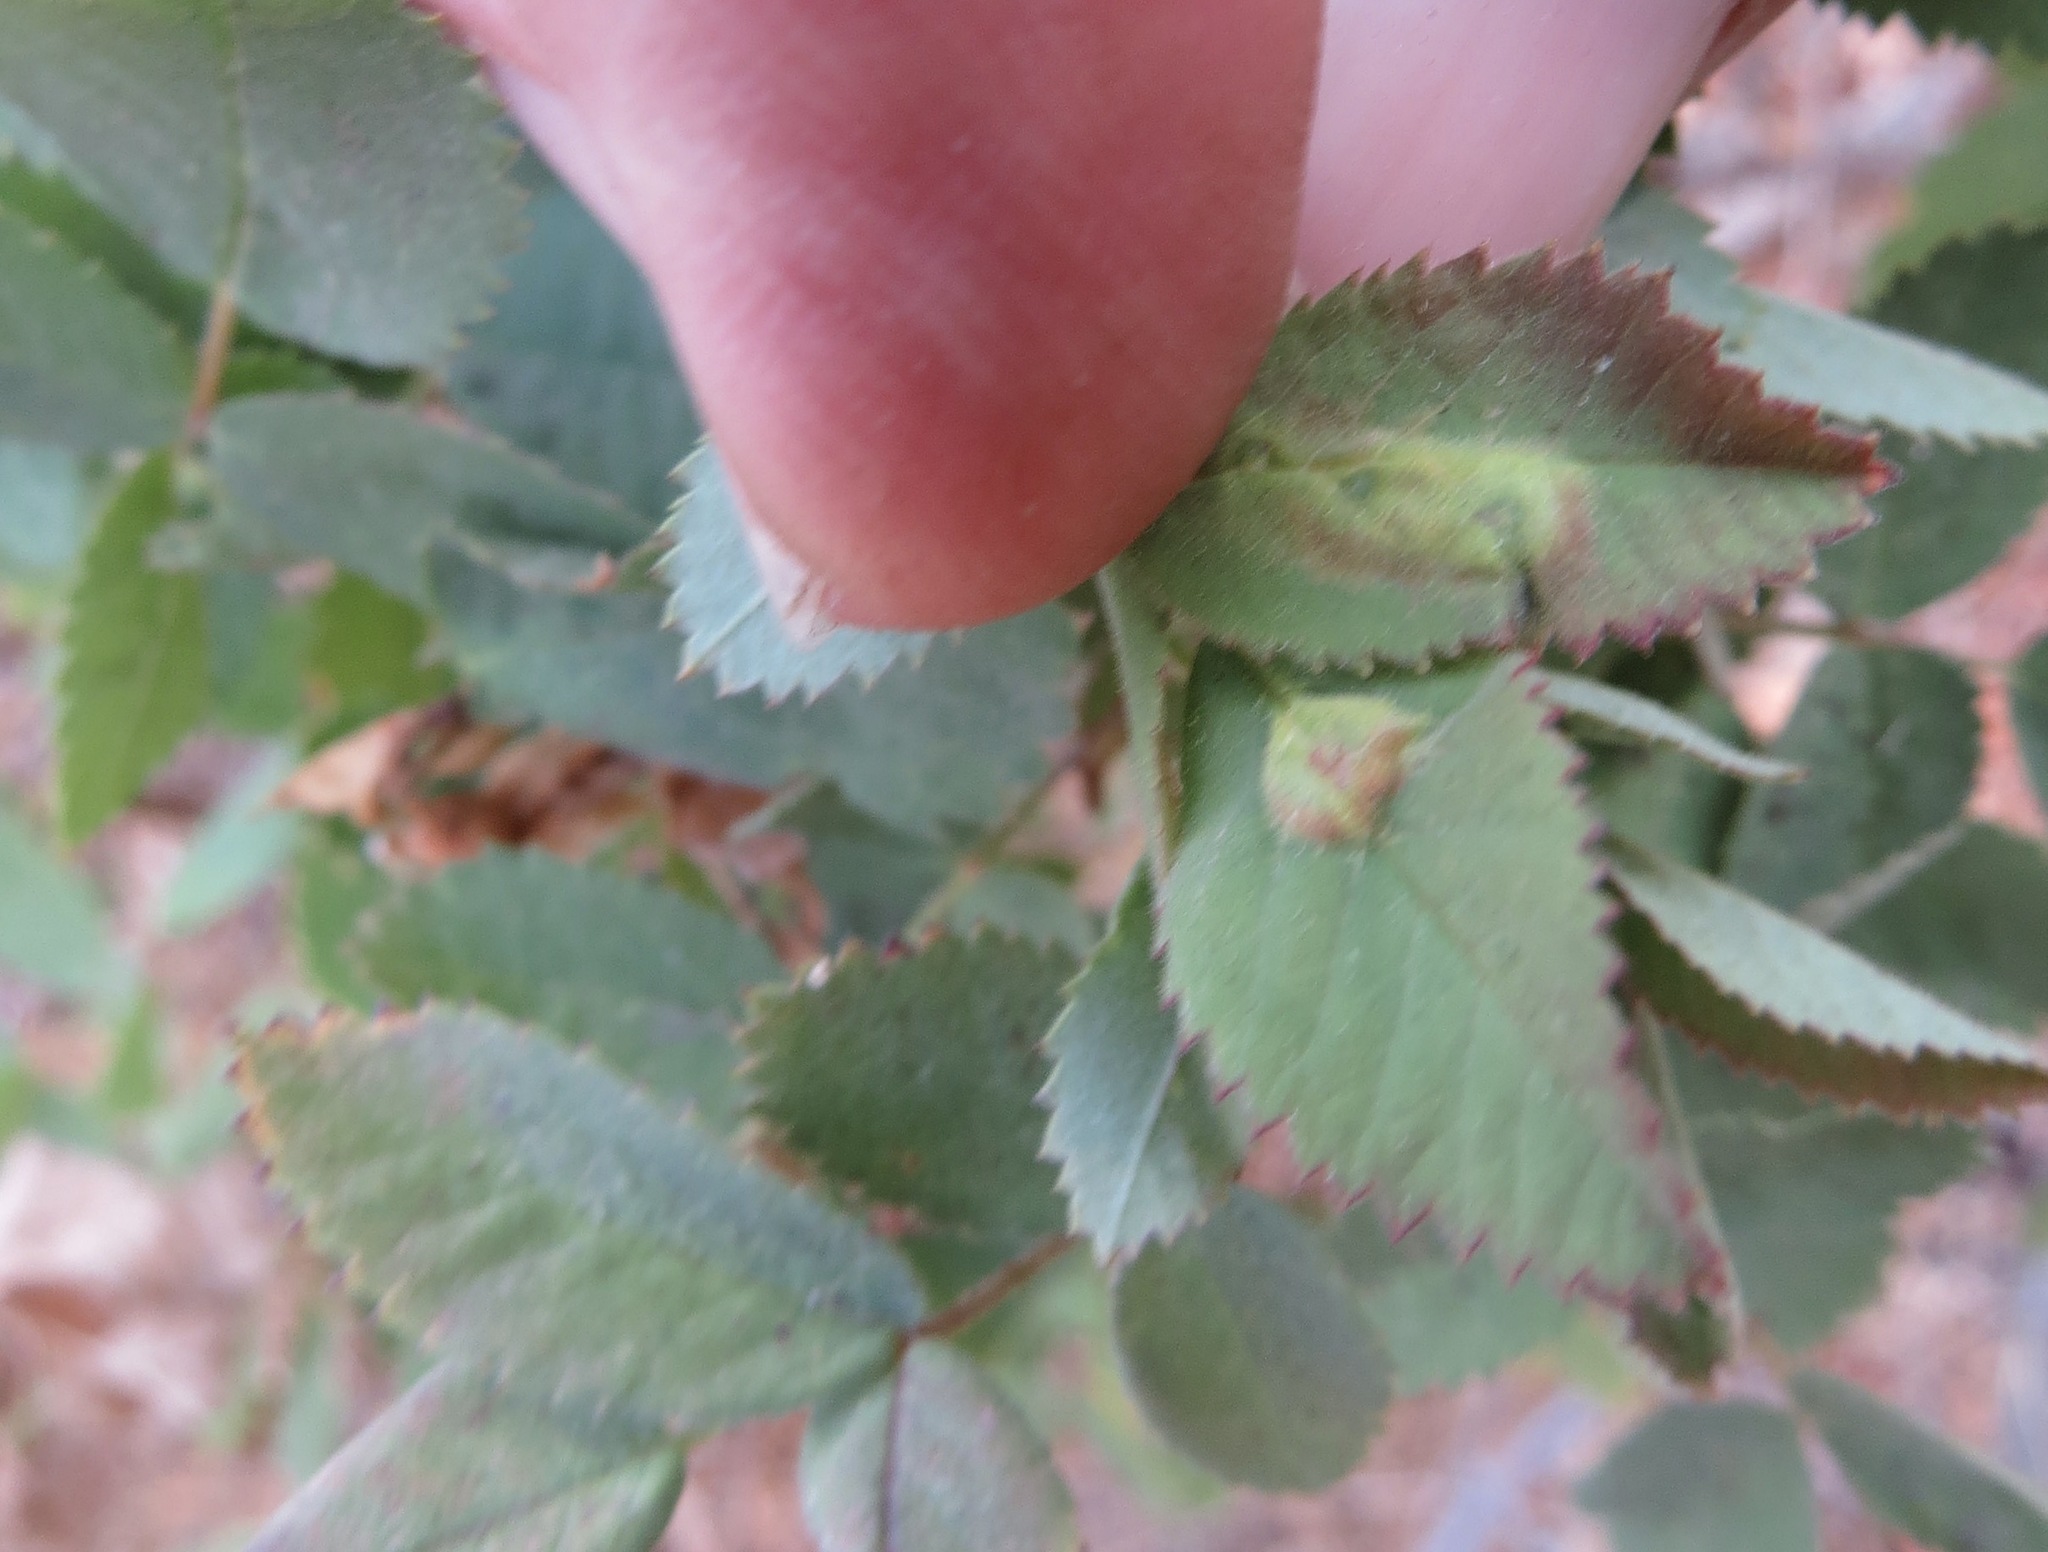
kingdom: Animalia
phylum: Arthropoda
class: Insecta
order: Hymenoptera
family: Cynipidae
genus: Diplolepis
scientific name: Diplolepis rosaefolii
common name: Blister-gall wasp
